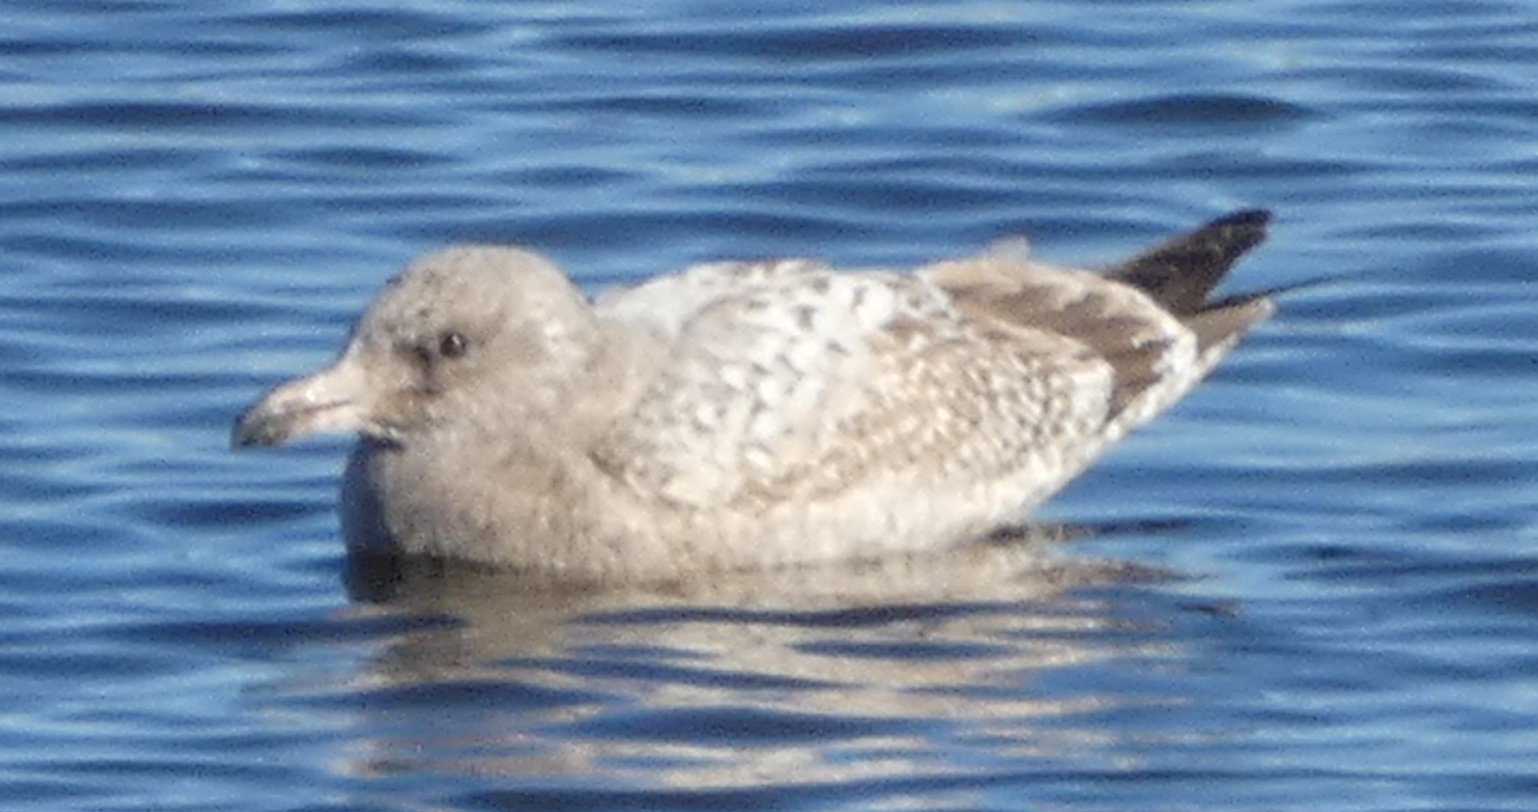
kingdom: Animalia
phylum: Chordata
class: Aves
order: Charadriiformes
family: Laridae
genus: Larus
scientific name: Larus argentatus
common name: Herring gull
